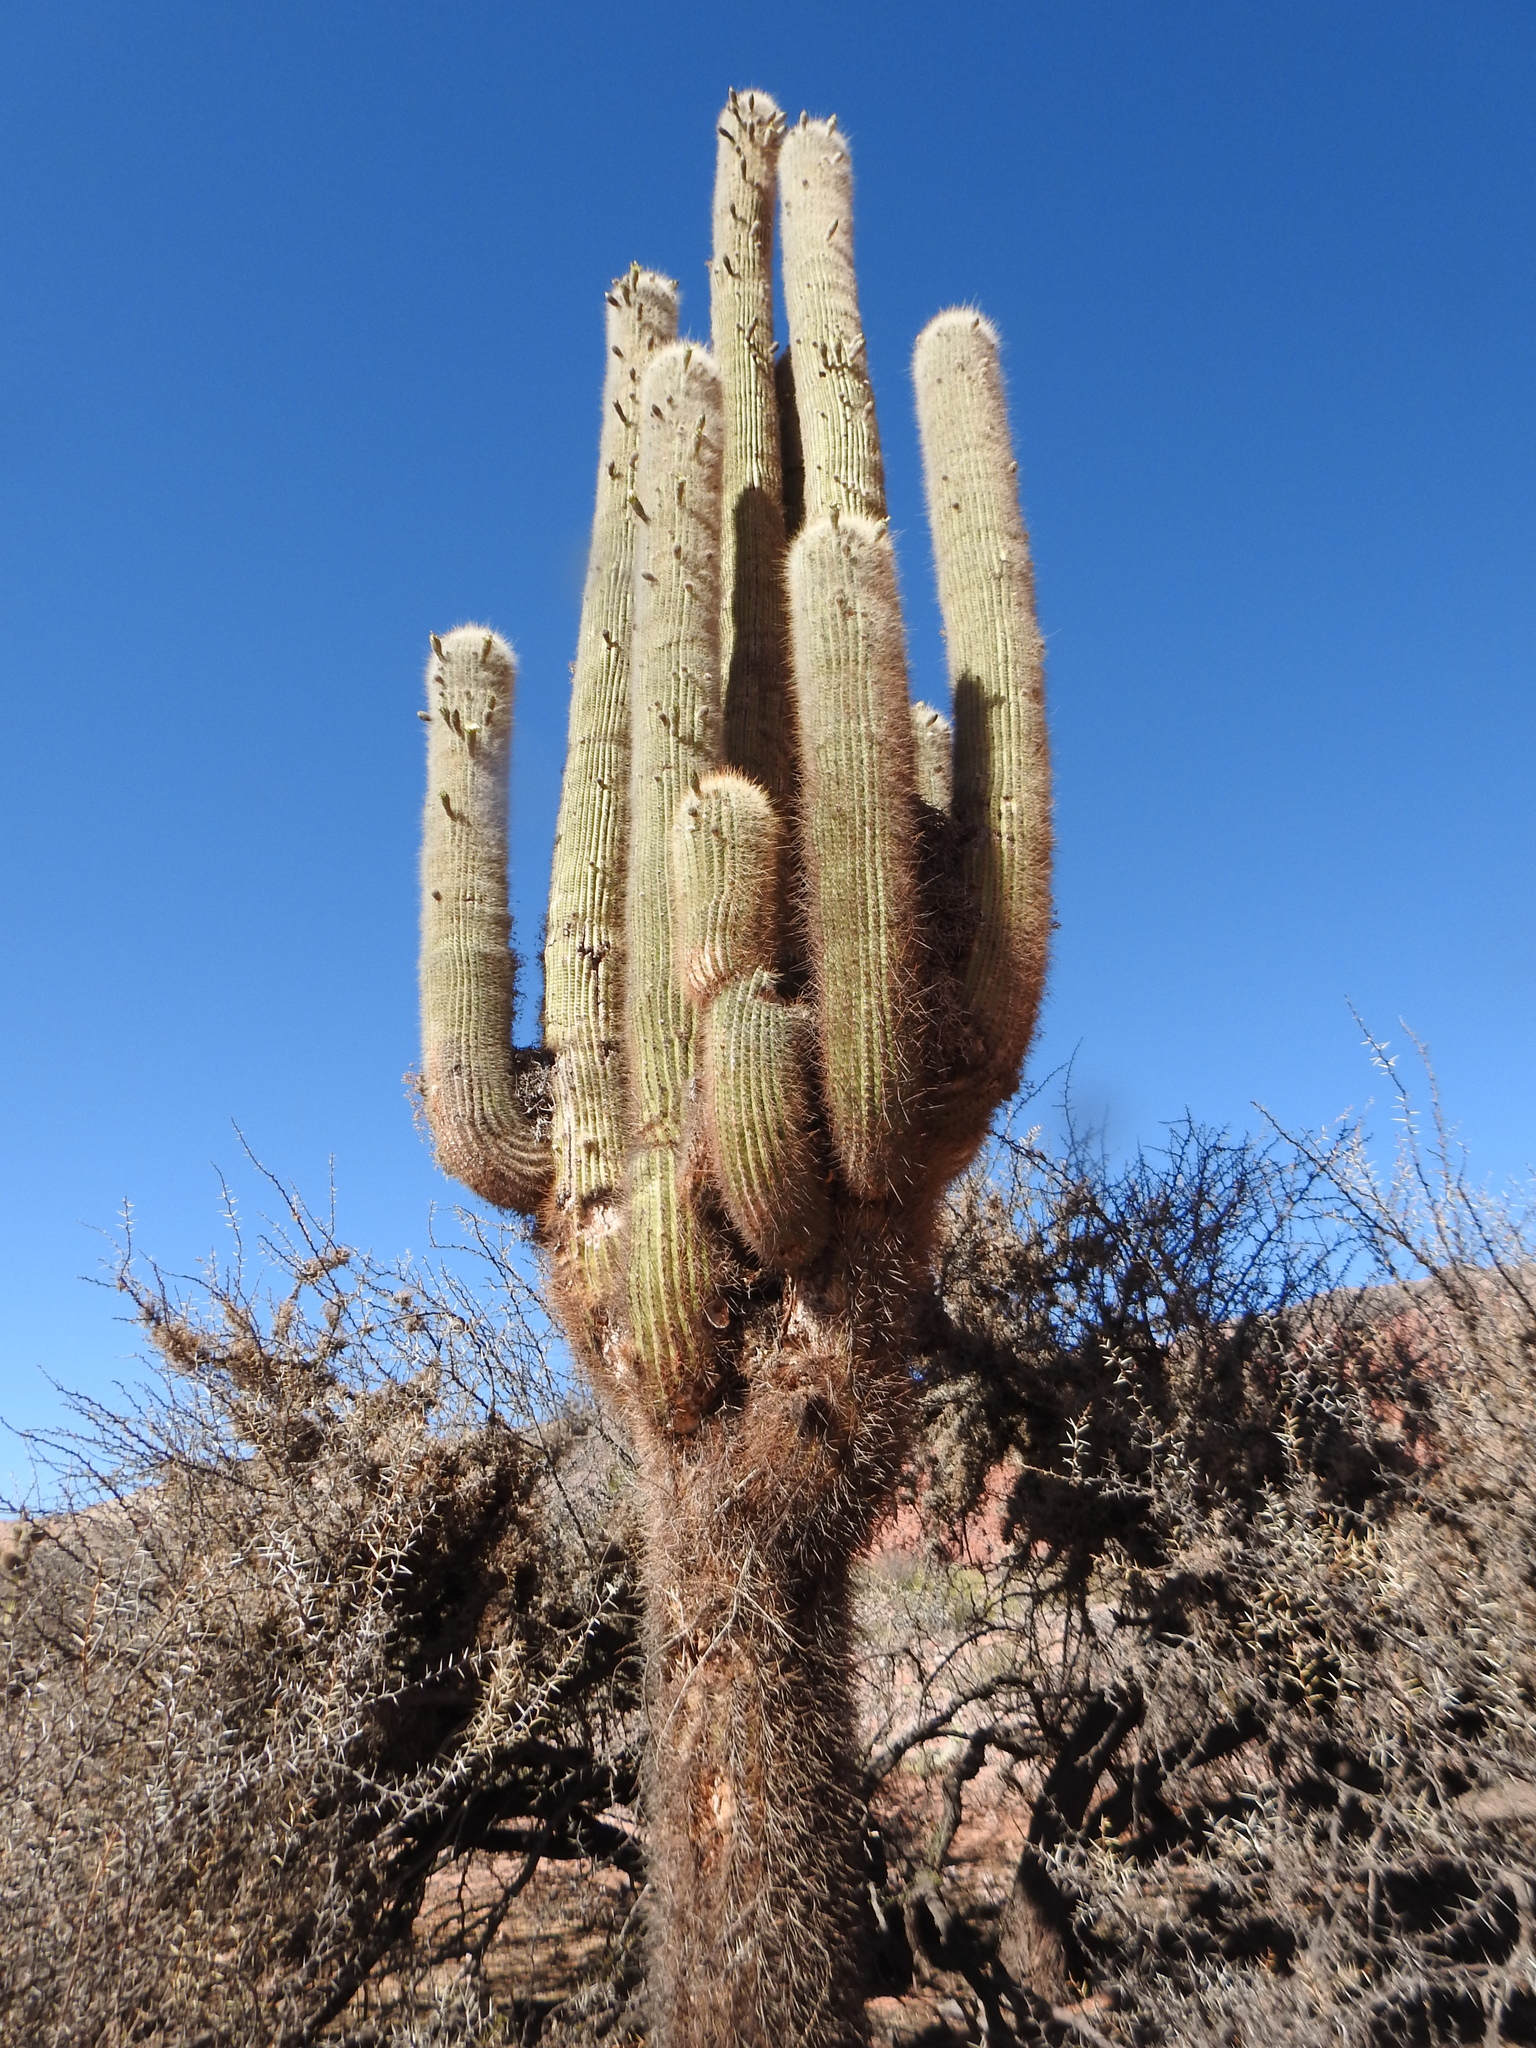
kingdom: Plantae
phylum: Tracheophyta
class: Magnoliopsida
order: Caryophyllales
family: Cactaceae
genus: Leucostele
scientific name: Leucostele atacamensis
